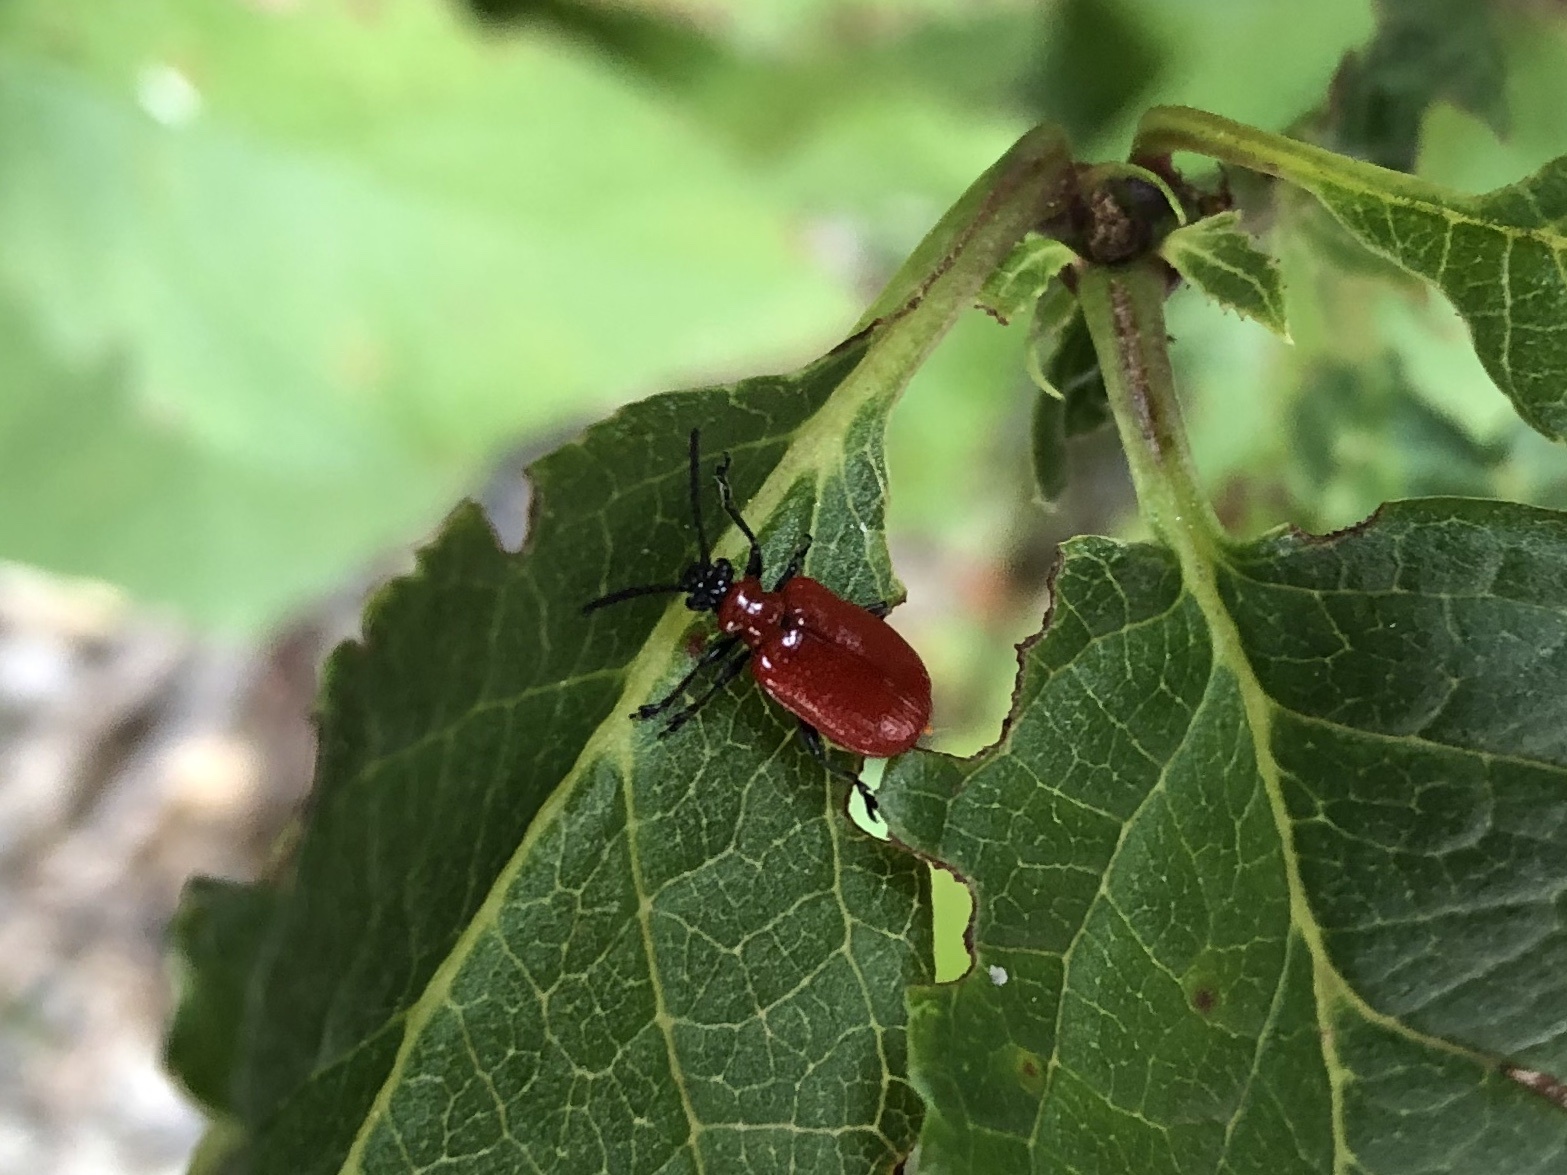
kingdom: Animalia
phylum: Arthropoda
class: Insecta
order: Coleoptera
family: Chrysomelidae
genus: Lilioceris
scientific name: Lilioceris lilii
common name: Lily beetle
